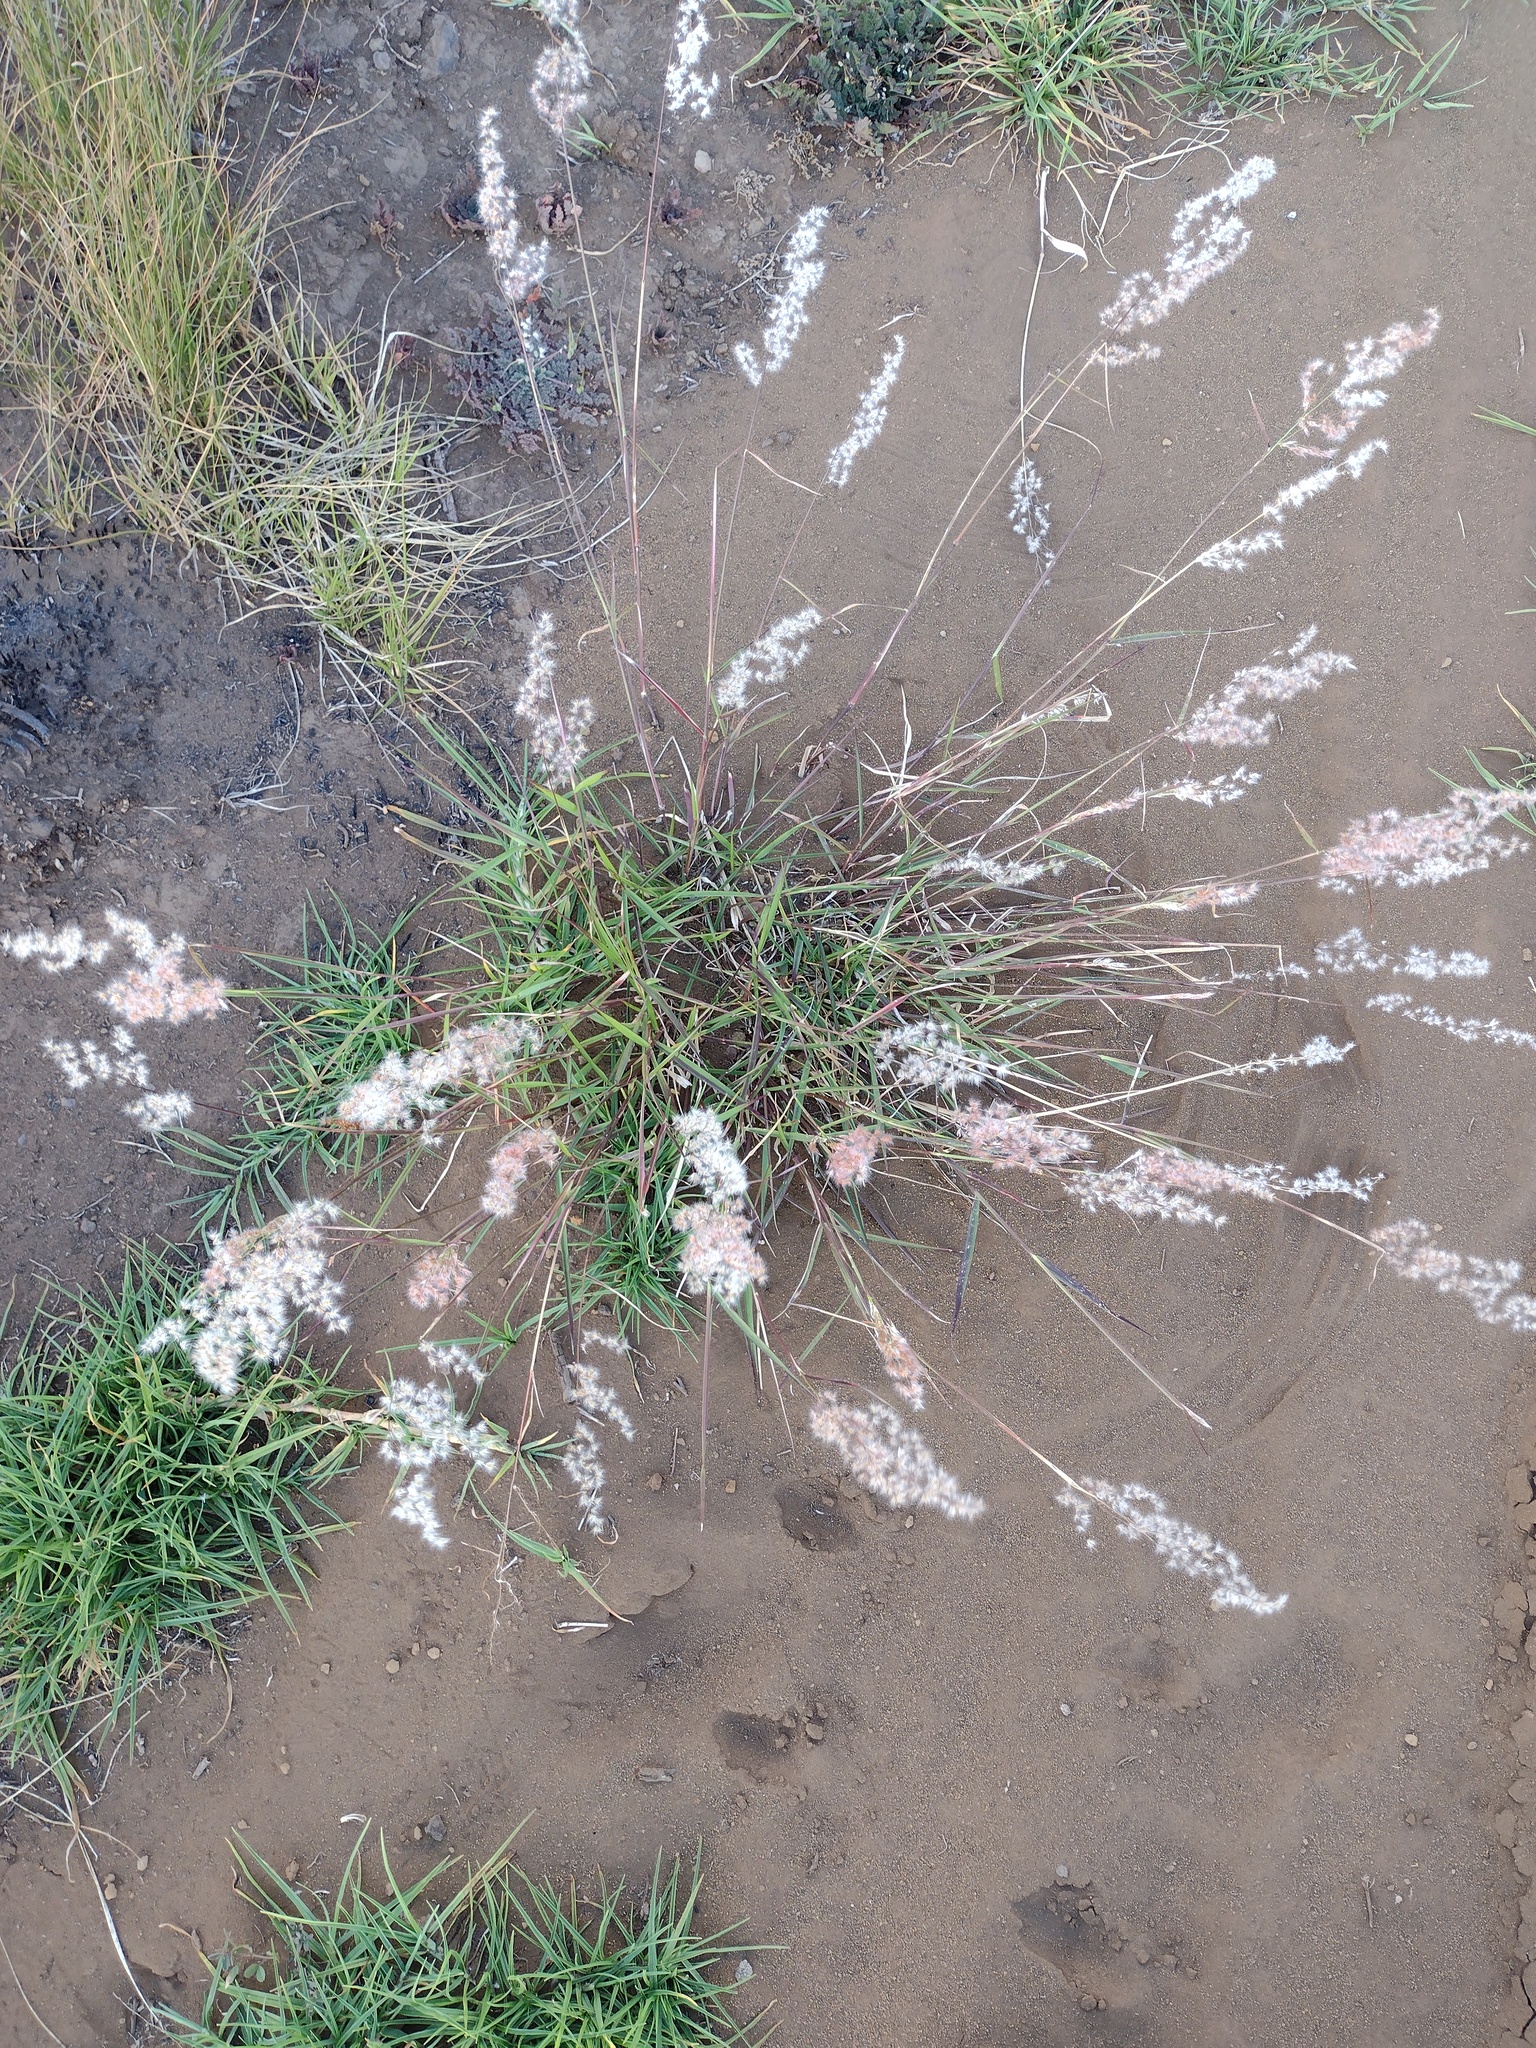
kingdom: Plantae
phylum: Tracheophyta
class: Liliopsida
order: Poales
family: Poaceae
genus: Melinis
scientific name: Melinis repens
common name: Rose natal grass
